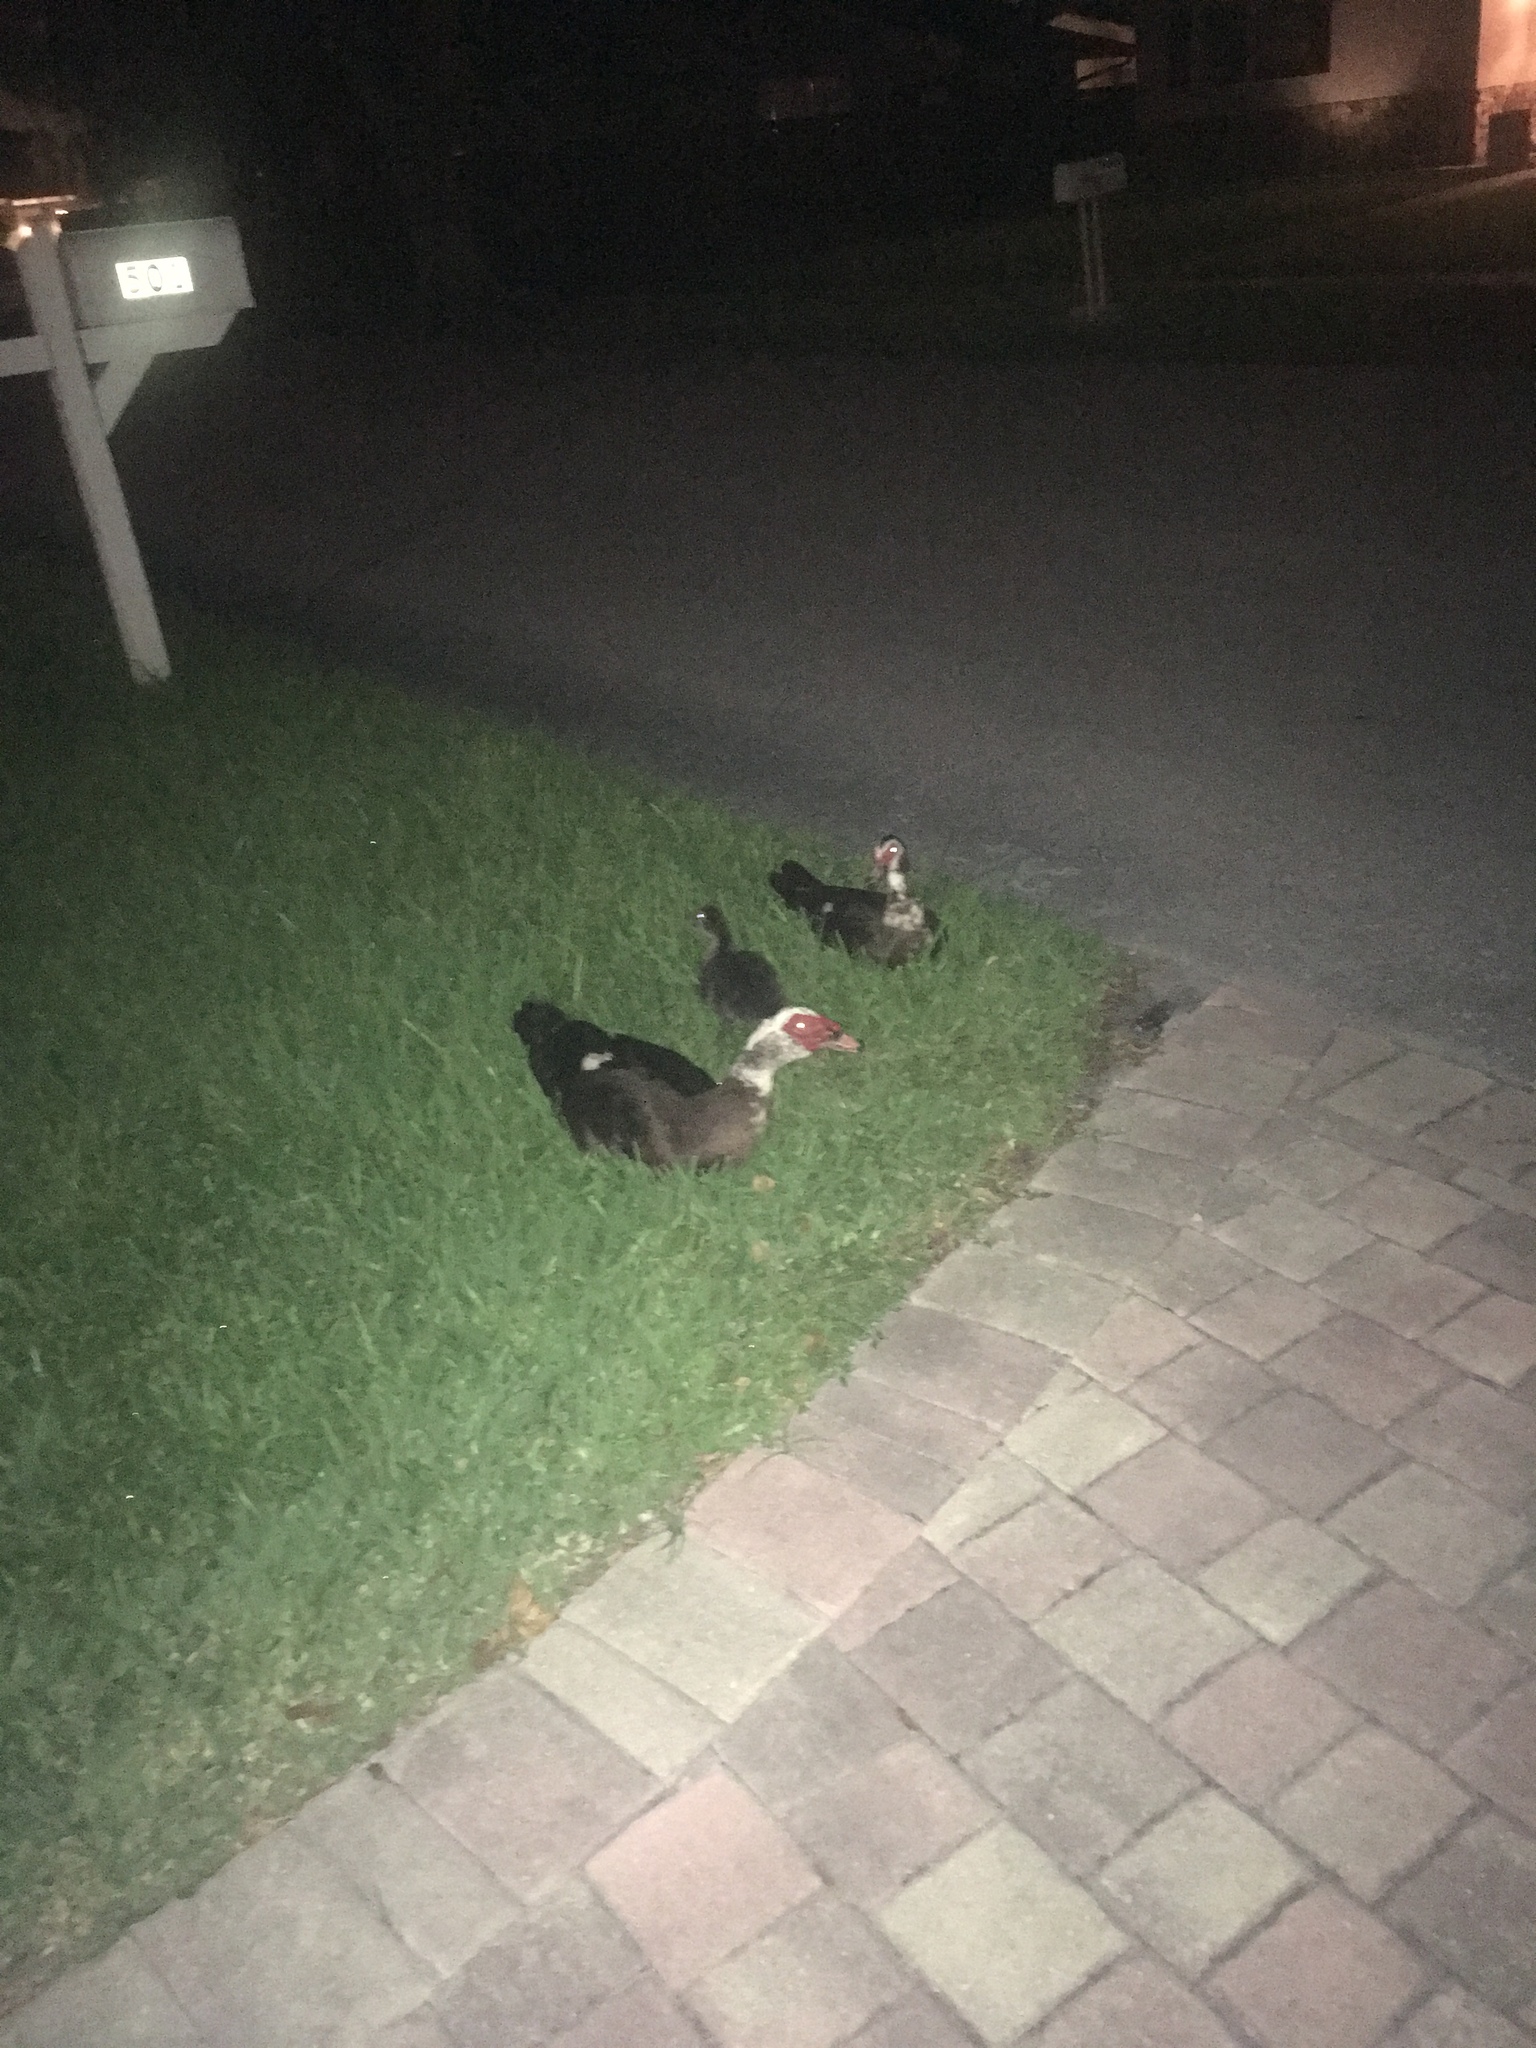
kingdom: Animalia
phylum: Chordata
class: Aves
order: Anseriformes
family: Anatidae
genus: Cairina
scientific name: Cairina moschata
